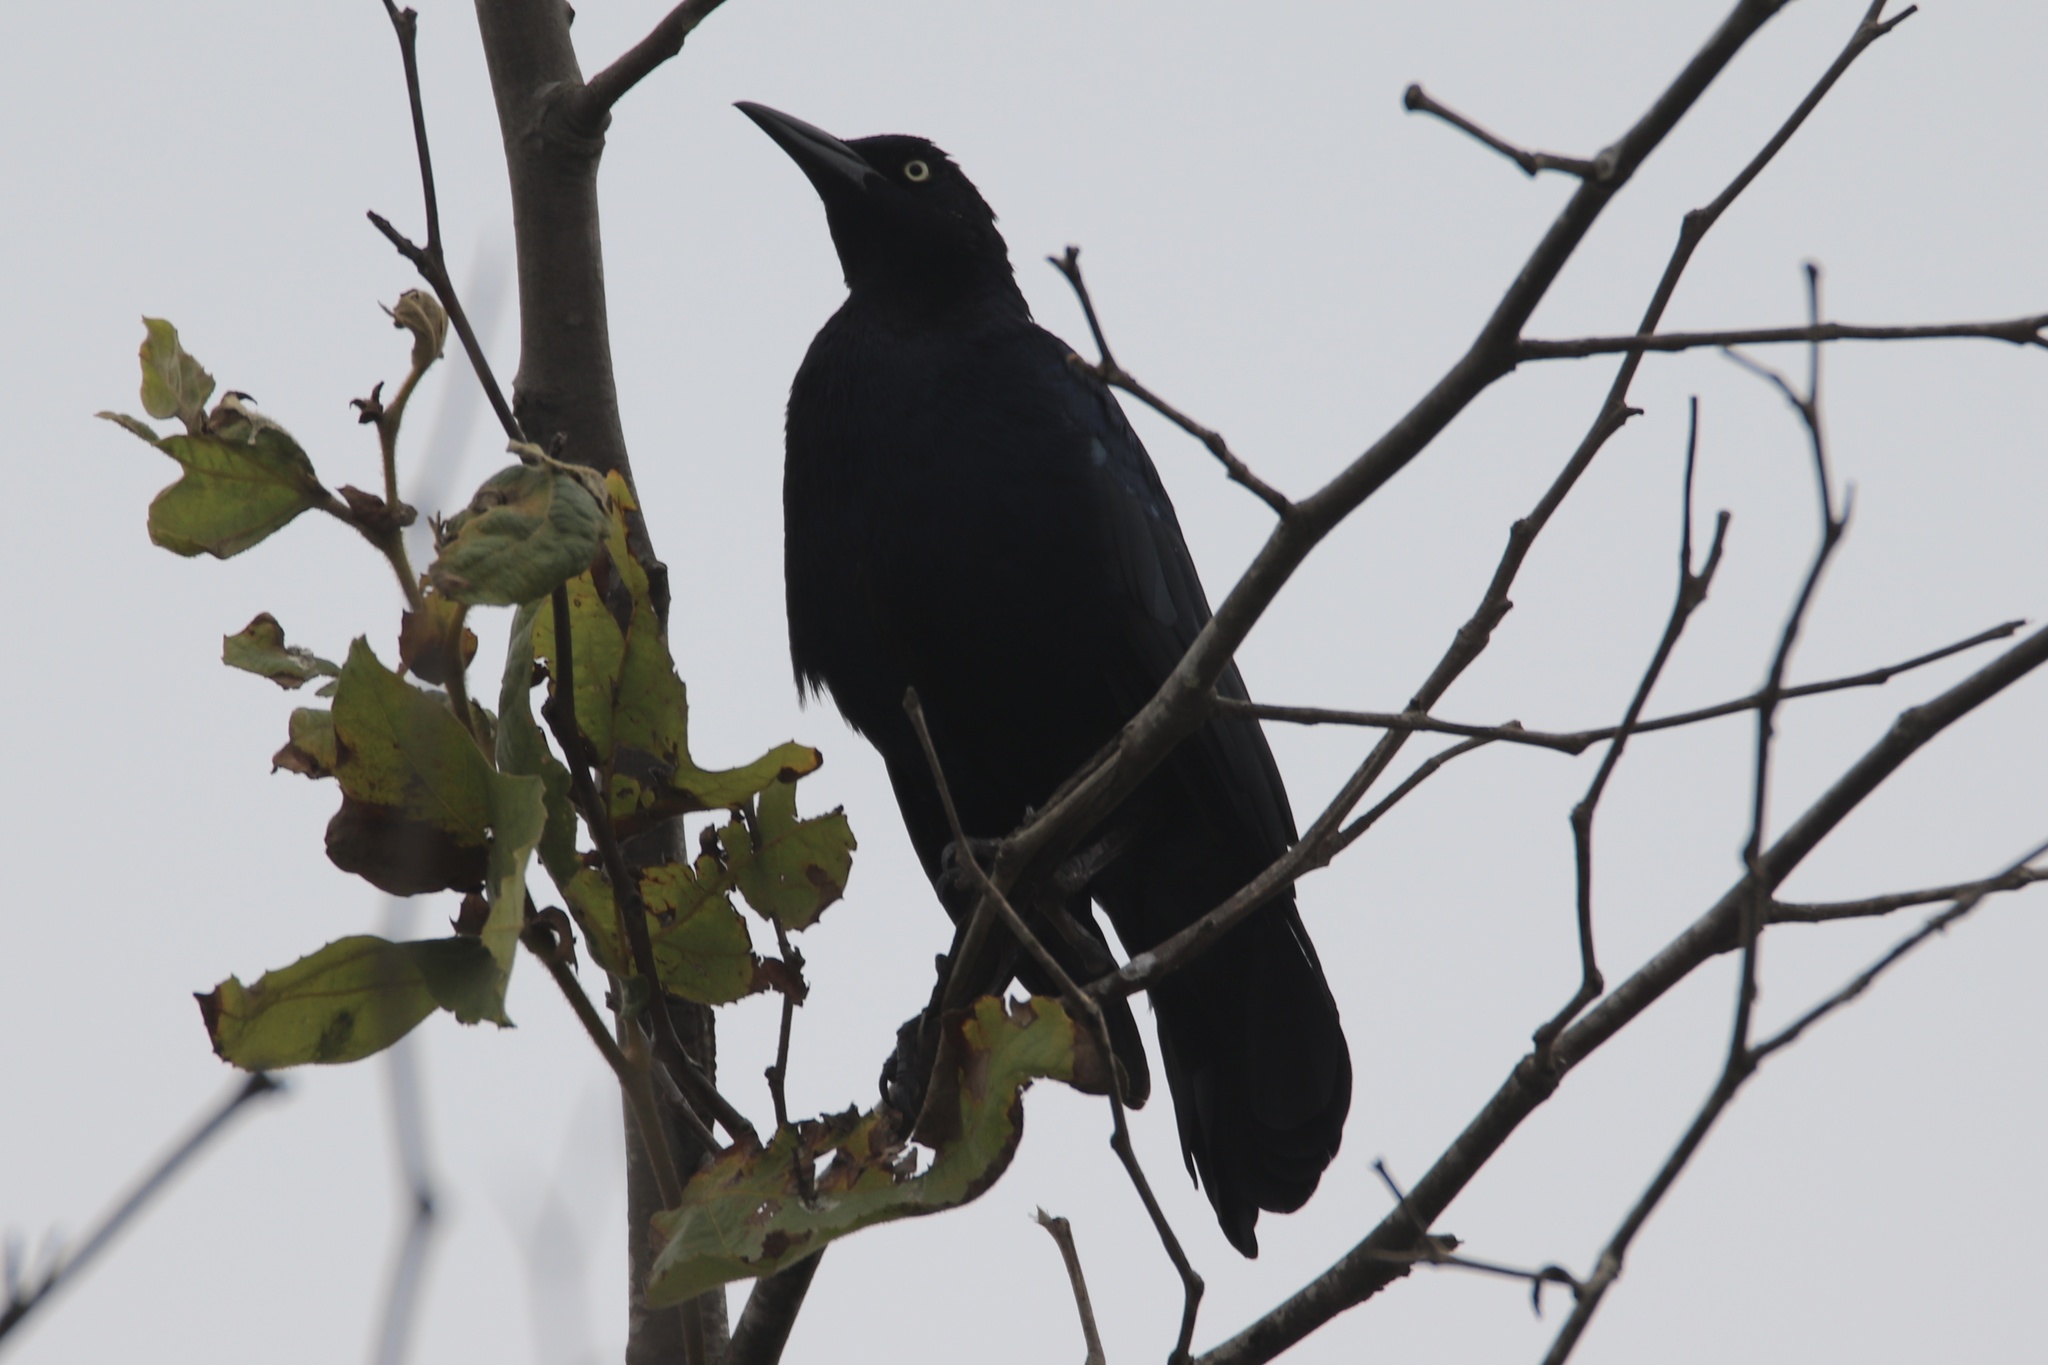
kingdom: Animalia
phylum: Chordata
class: Aves
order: Passeriformes
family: Icteridae
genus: Quiscalus
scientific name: Quiscalus mexicanus
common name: Great-tailed grackle
